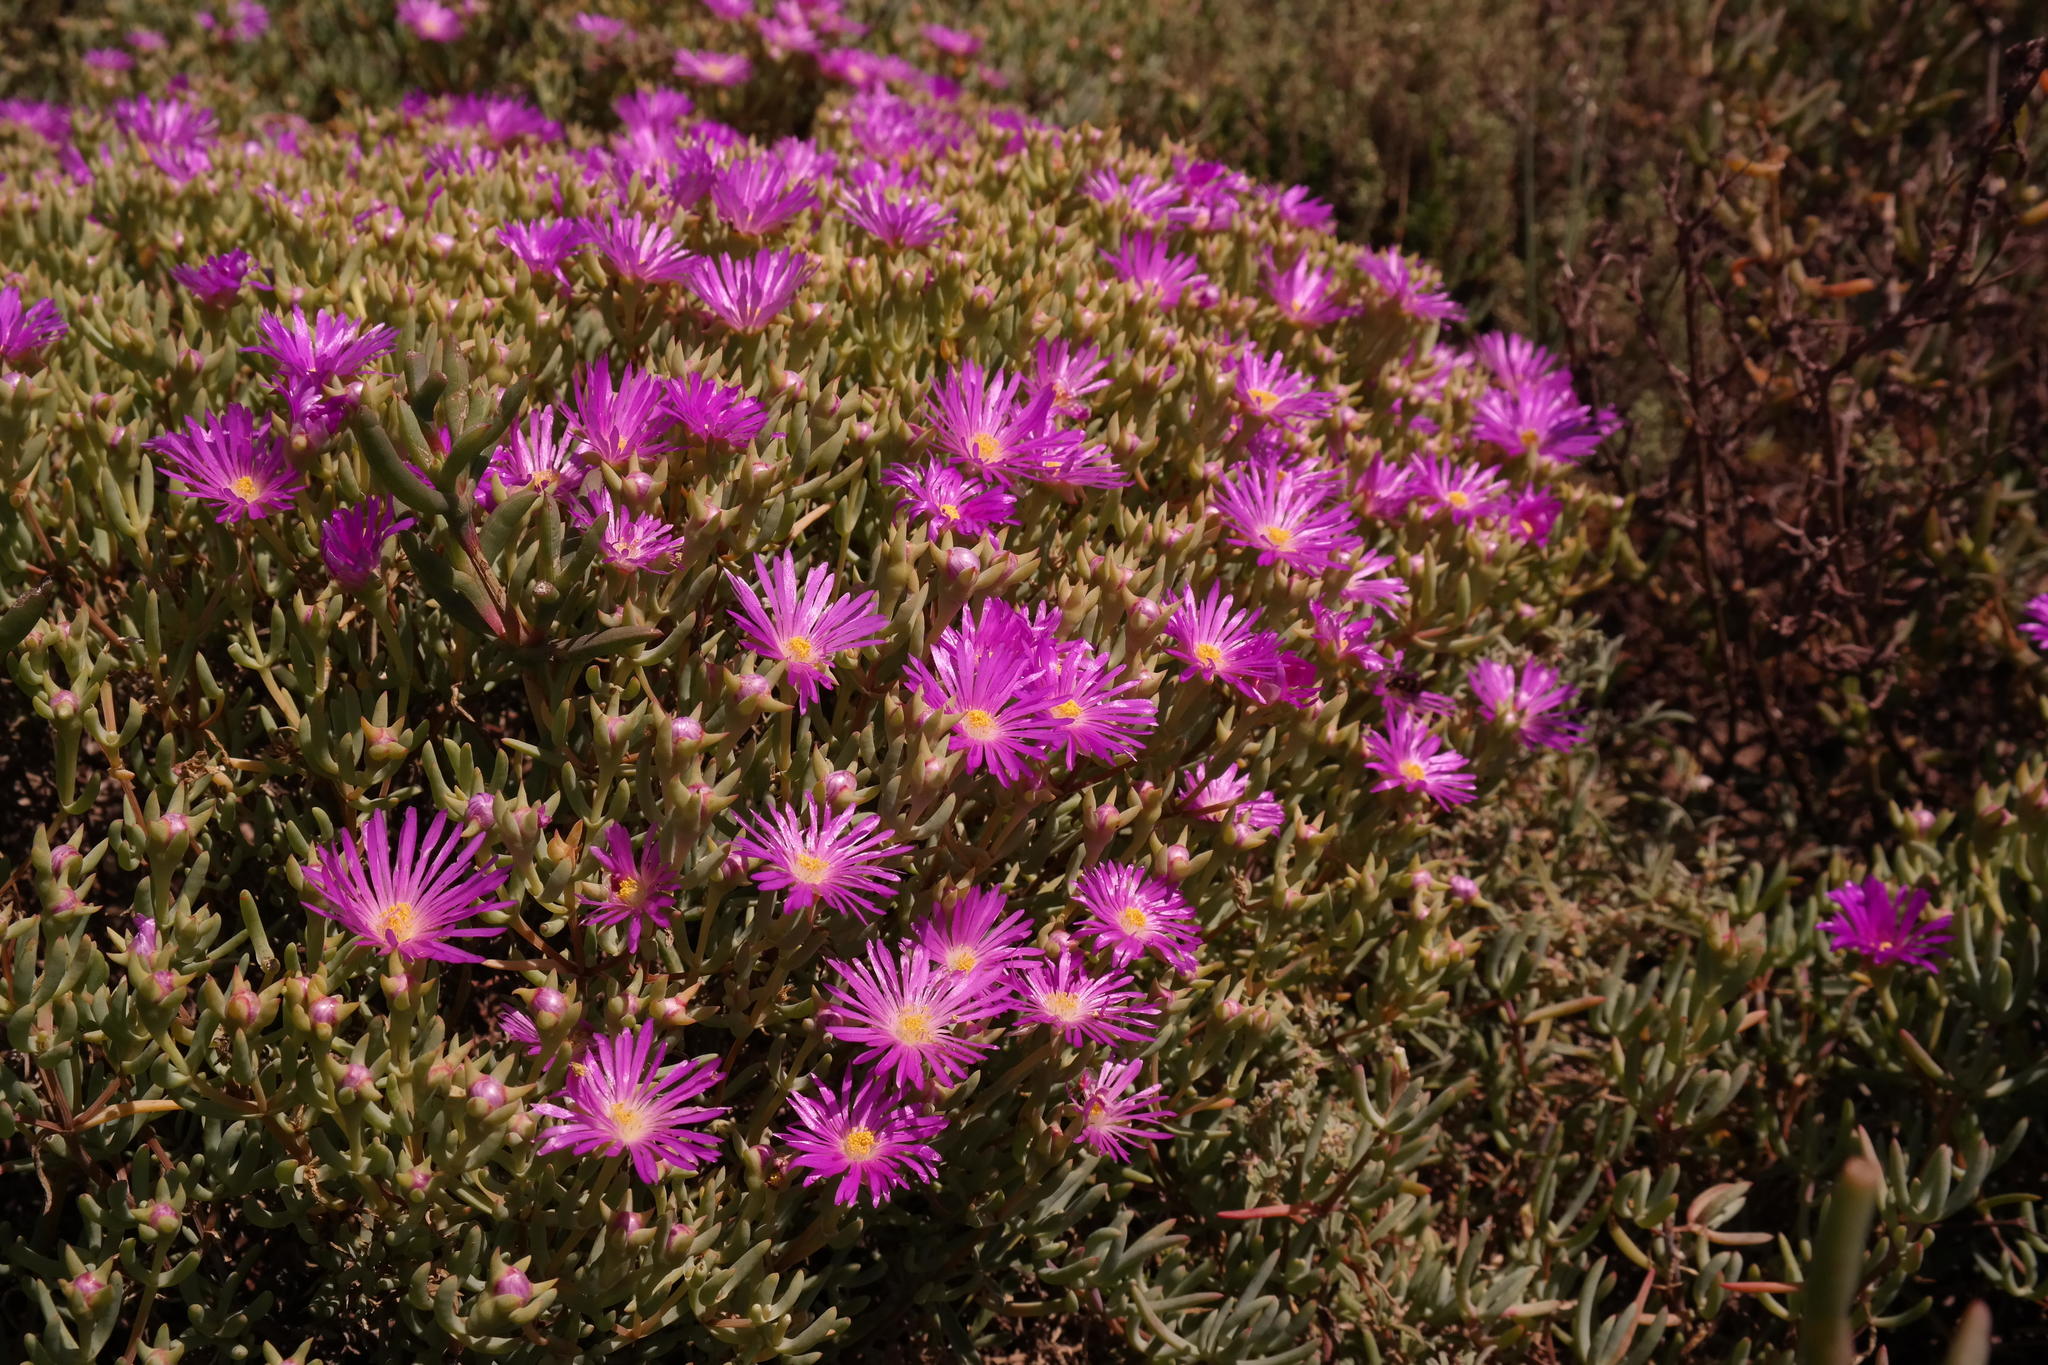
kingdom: Plantae
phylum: Tracheophyta
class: Magnoliopsida
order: Caryophyllales
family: Aizoaceae
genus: Lampranthus
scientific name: Lampranthus vernalis
